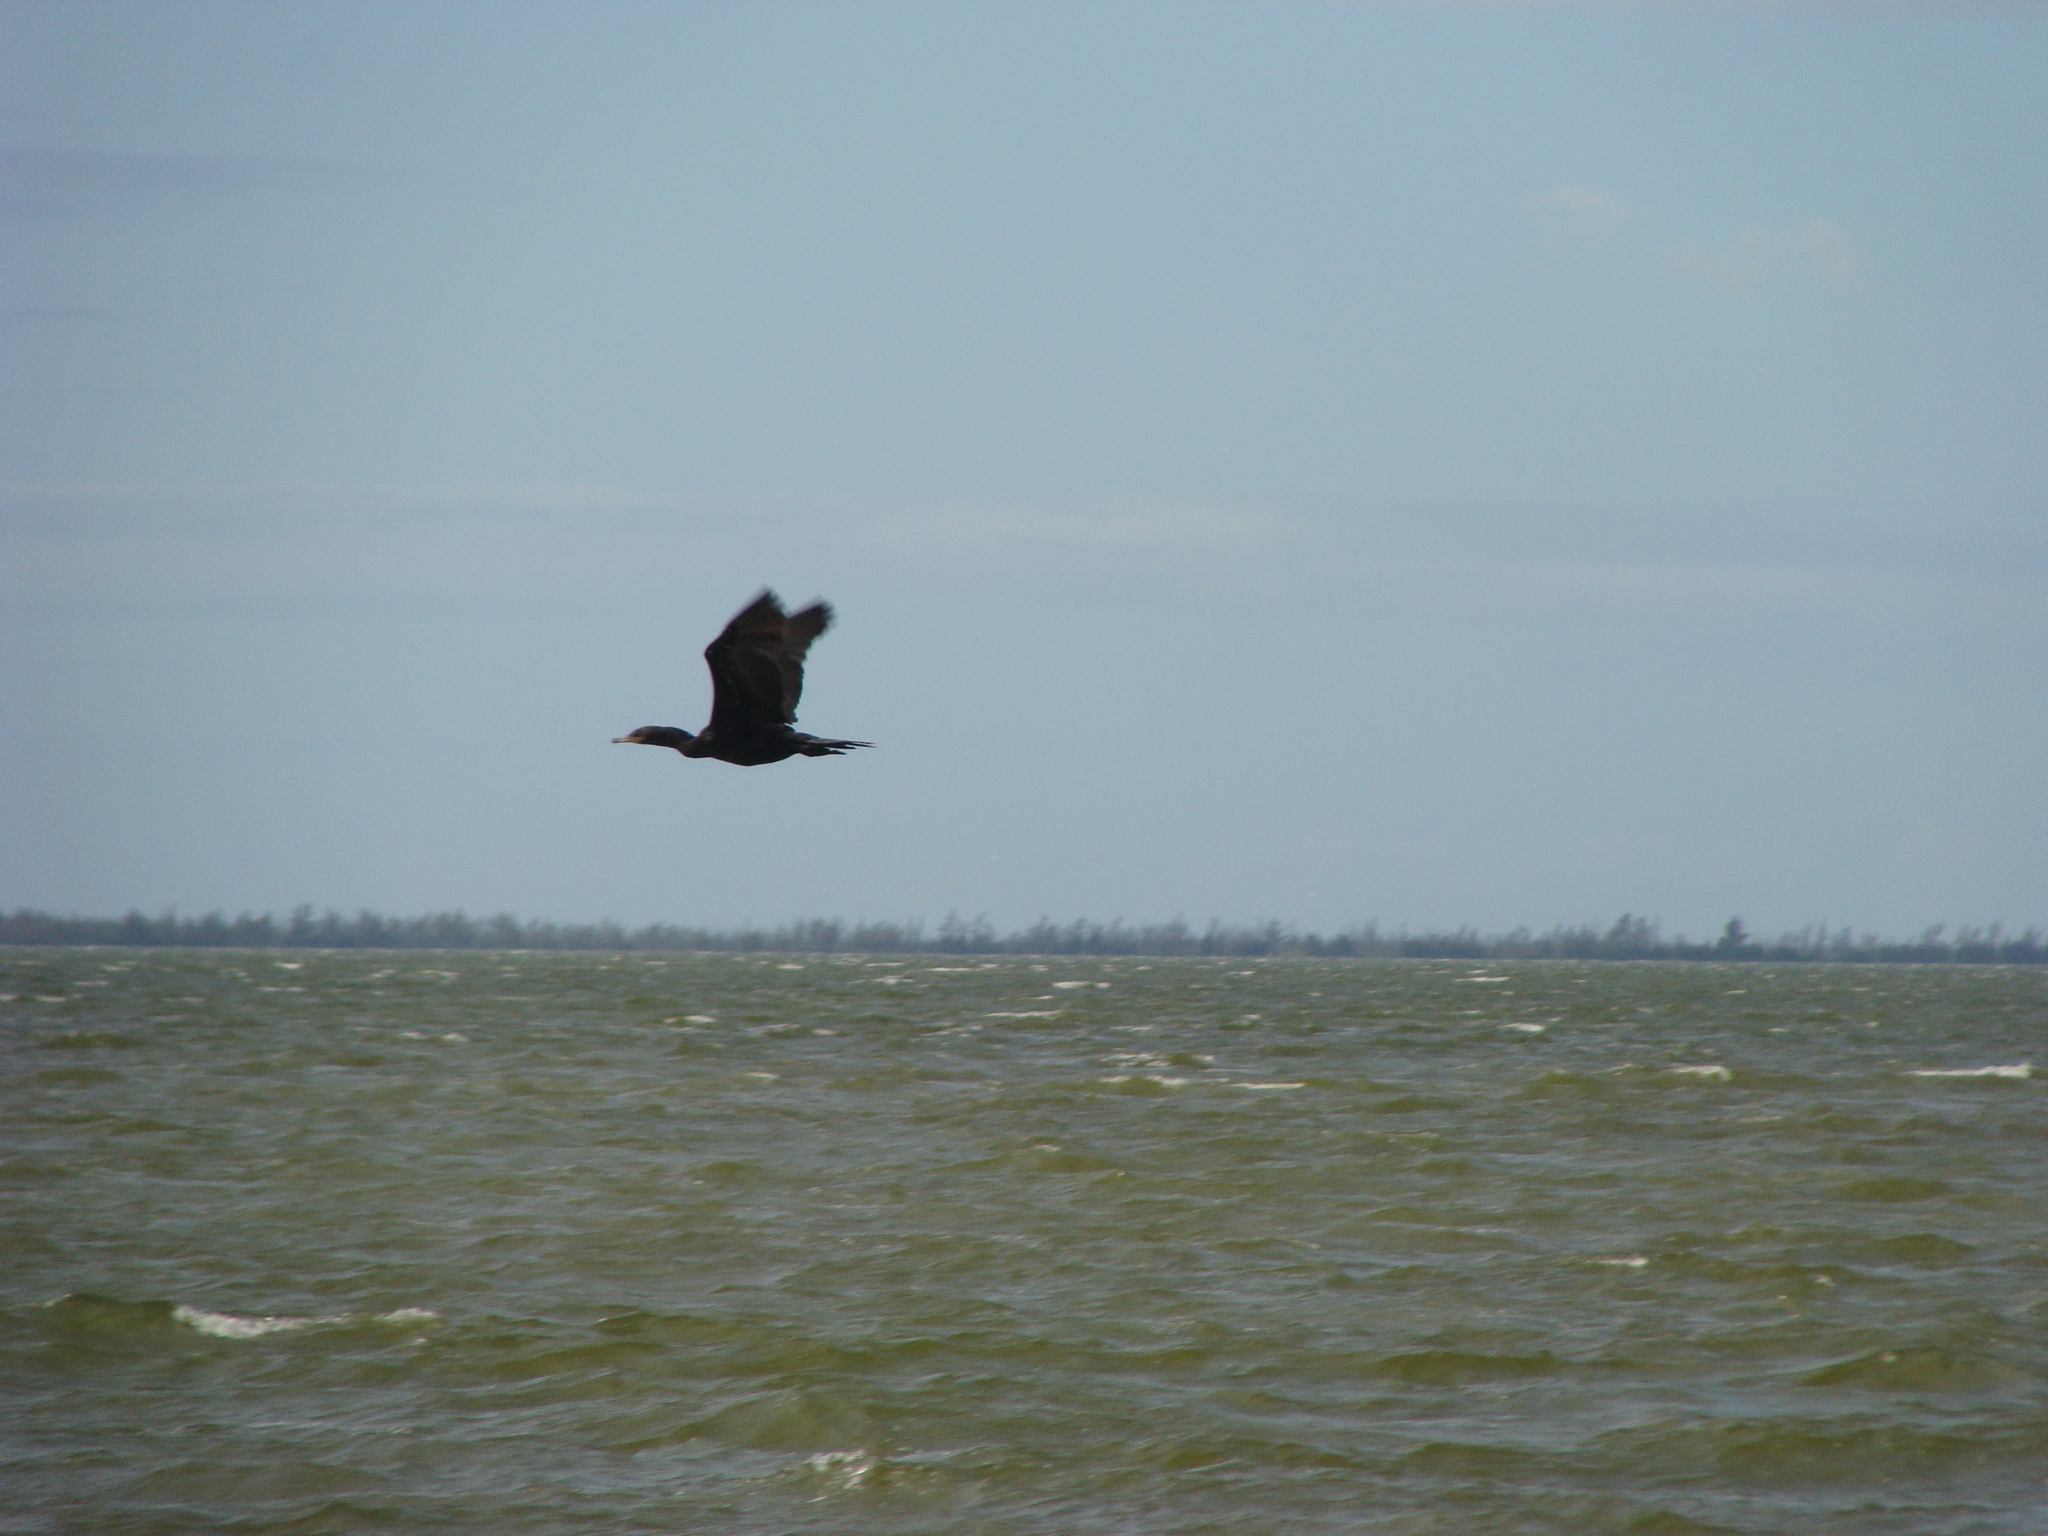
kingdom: Animalia
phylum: Chordata
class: Aves
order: Suliformes
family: Phalacrocoracidae
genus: Phalacrocorax
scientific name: Phalacrocorax brasilianus
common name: Neotropic cormorant
